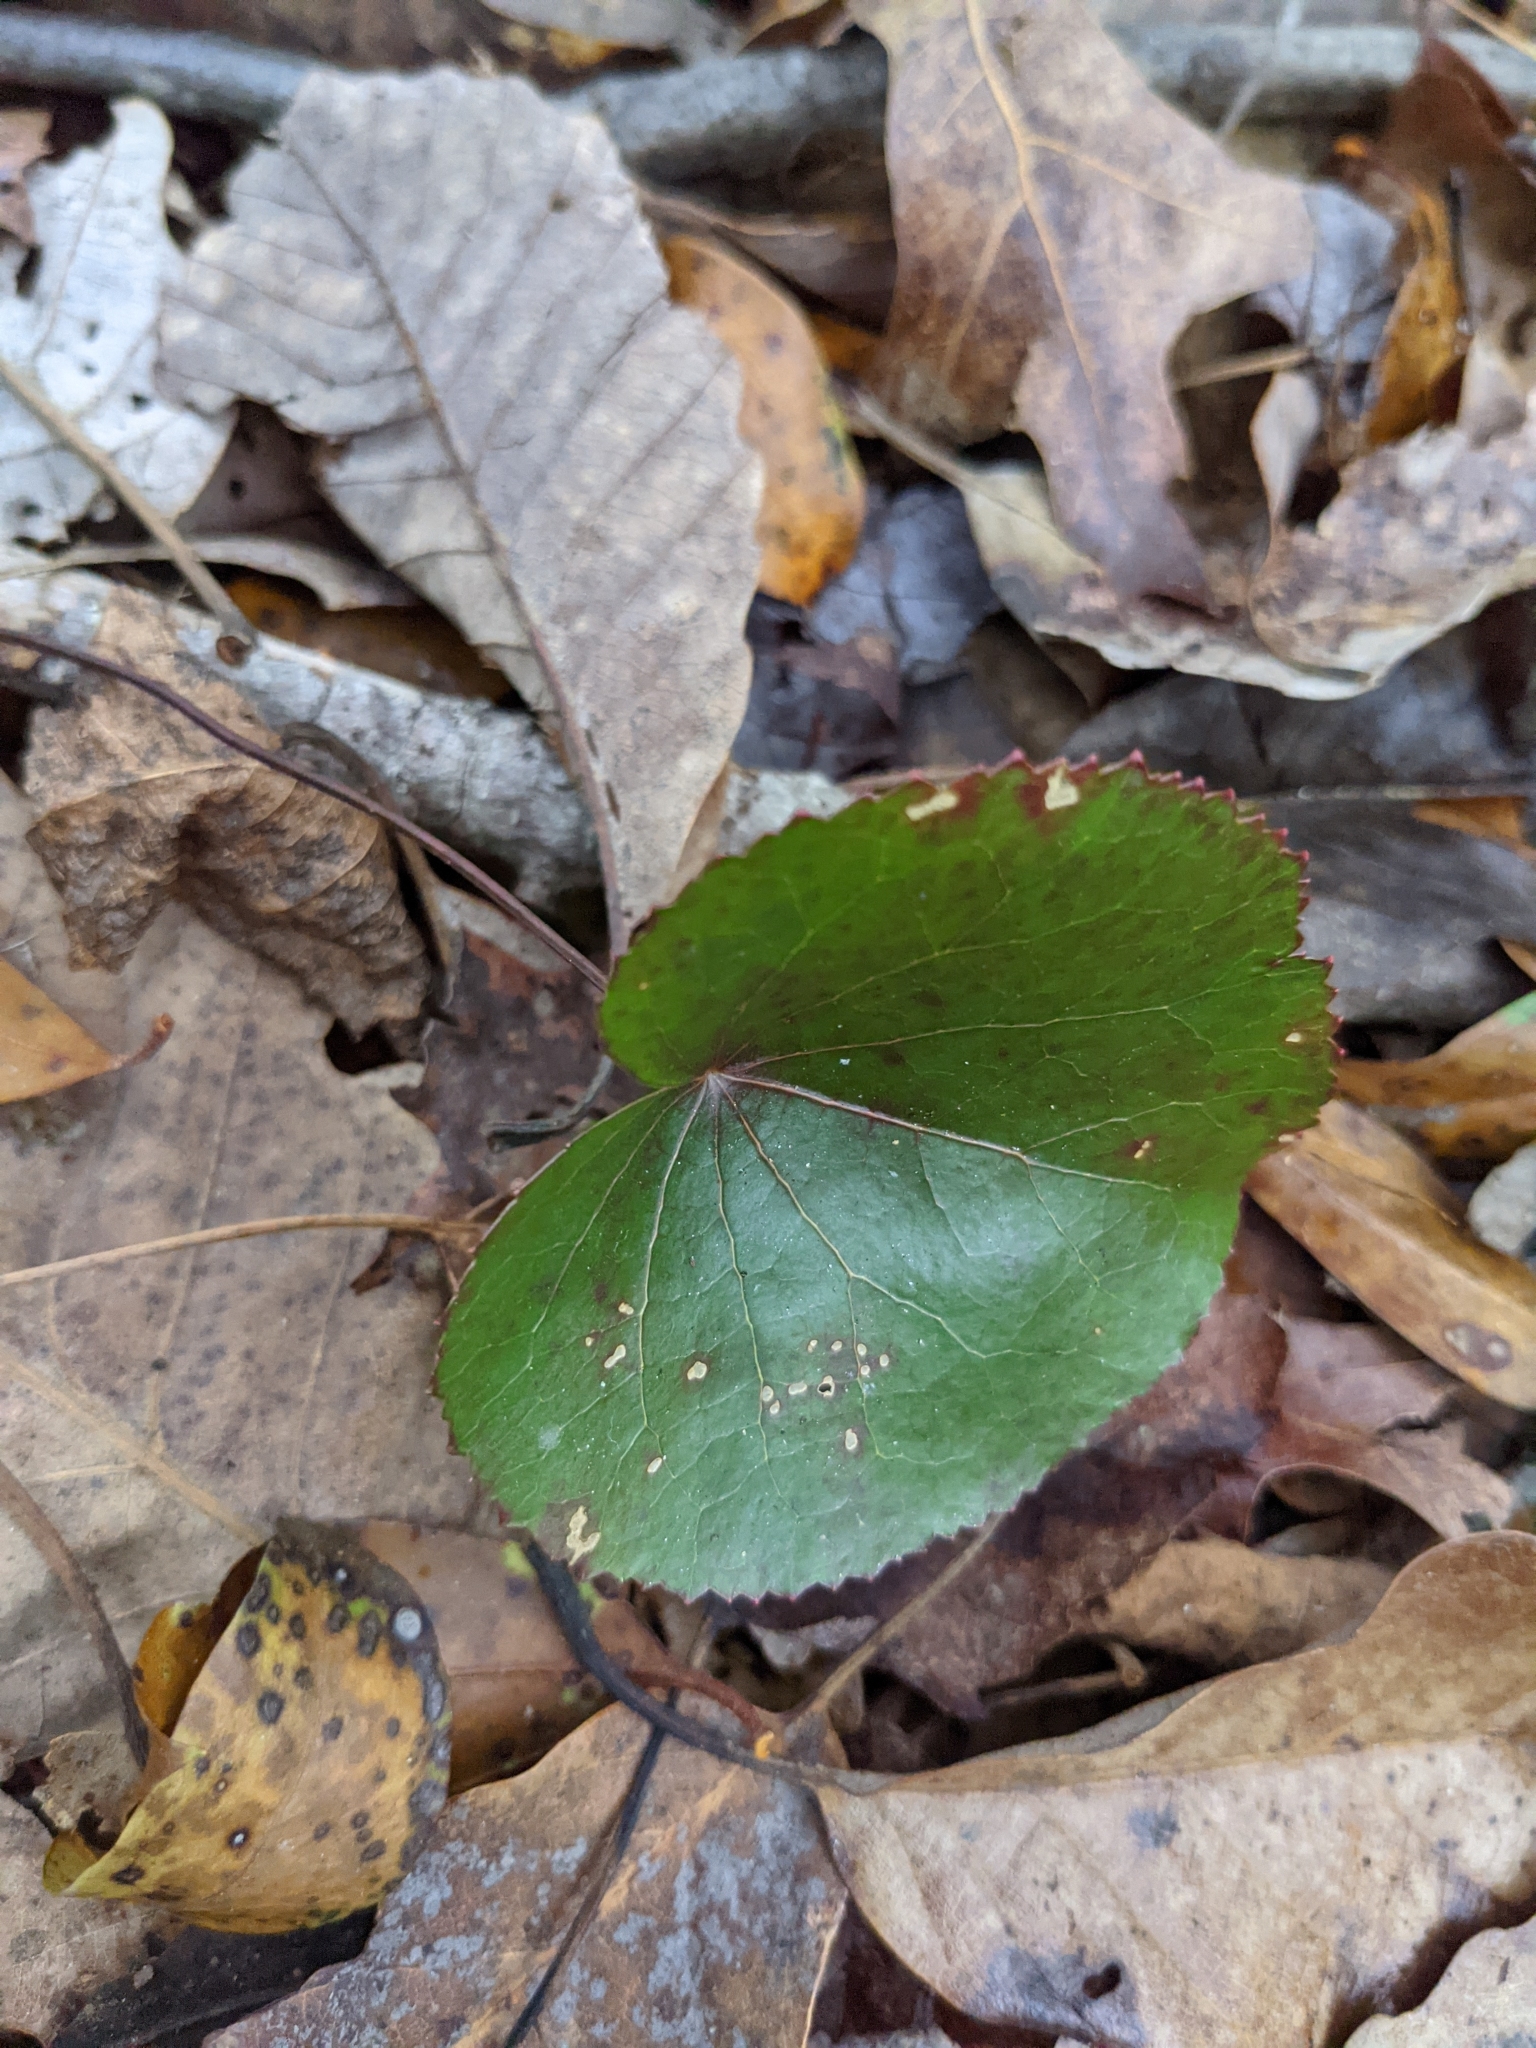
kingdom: Plantae
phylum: Tracheophyta
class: Magnoliopsida
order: Ericales
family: Diapensiaceae
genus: Galax
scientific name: Galax urceolata
